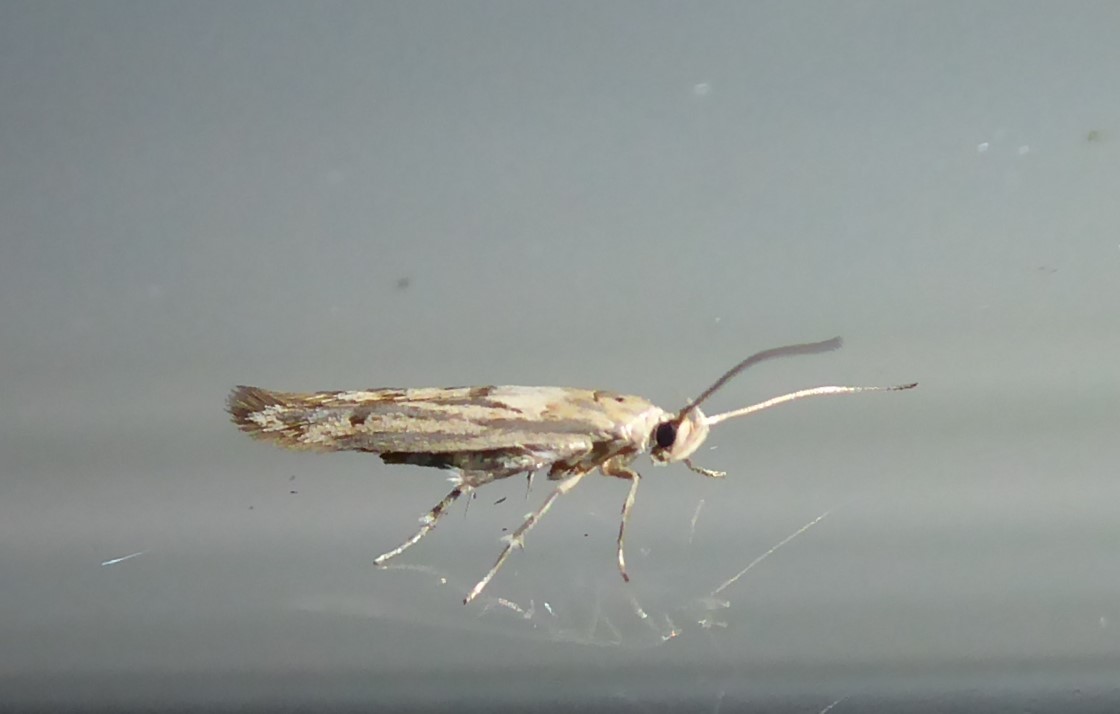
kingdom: Animalia
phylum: Arthropoda
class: Insecta
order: Lepidoptera
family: Stathmopodidae
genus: Stathmopoda
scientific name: Stathmopoda plumbiflua
